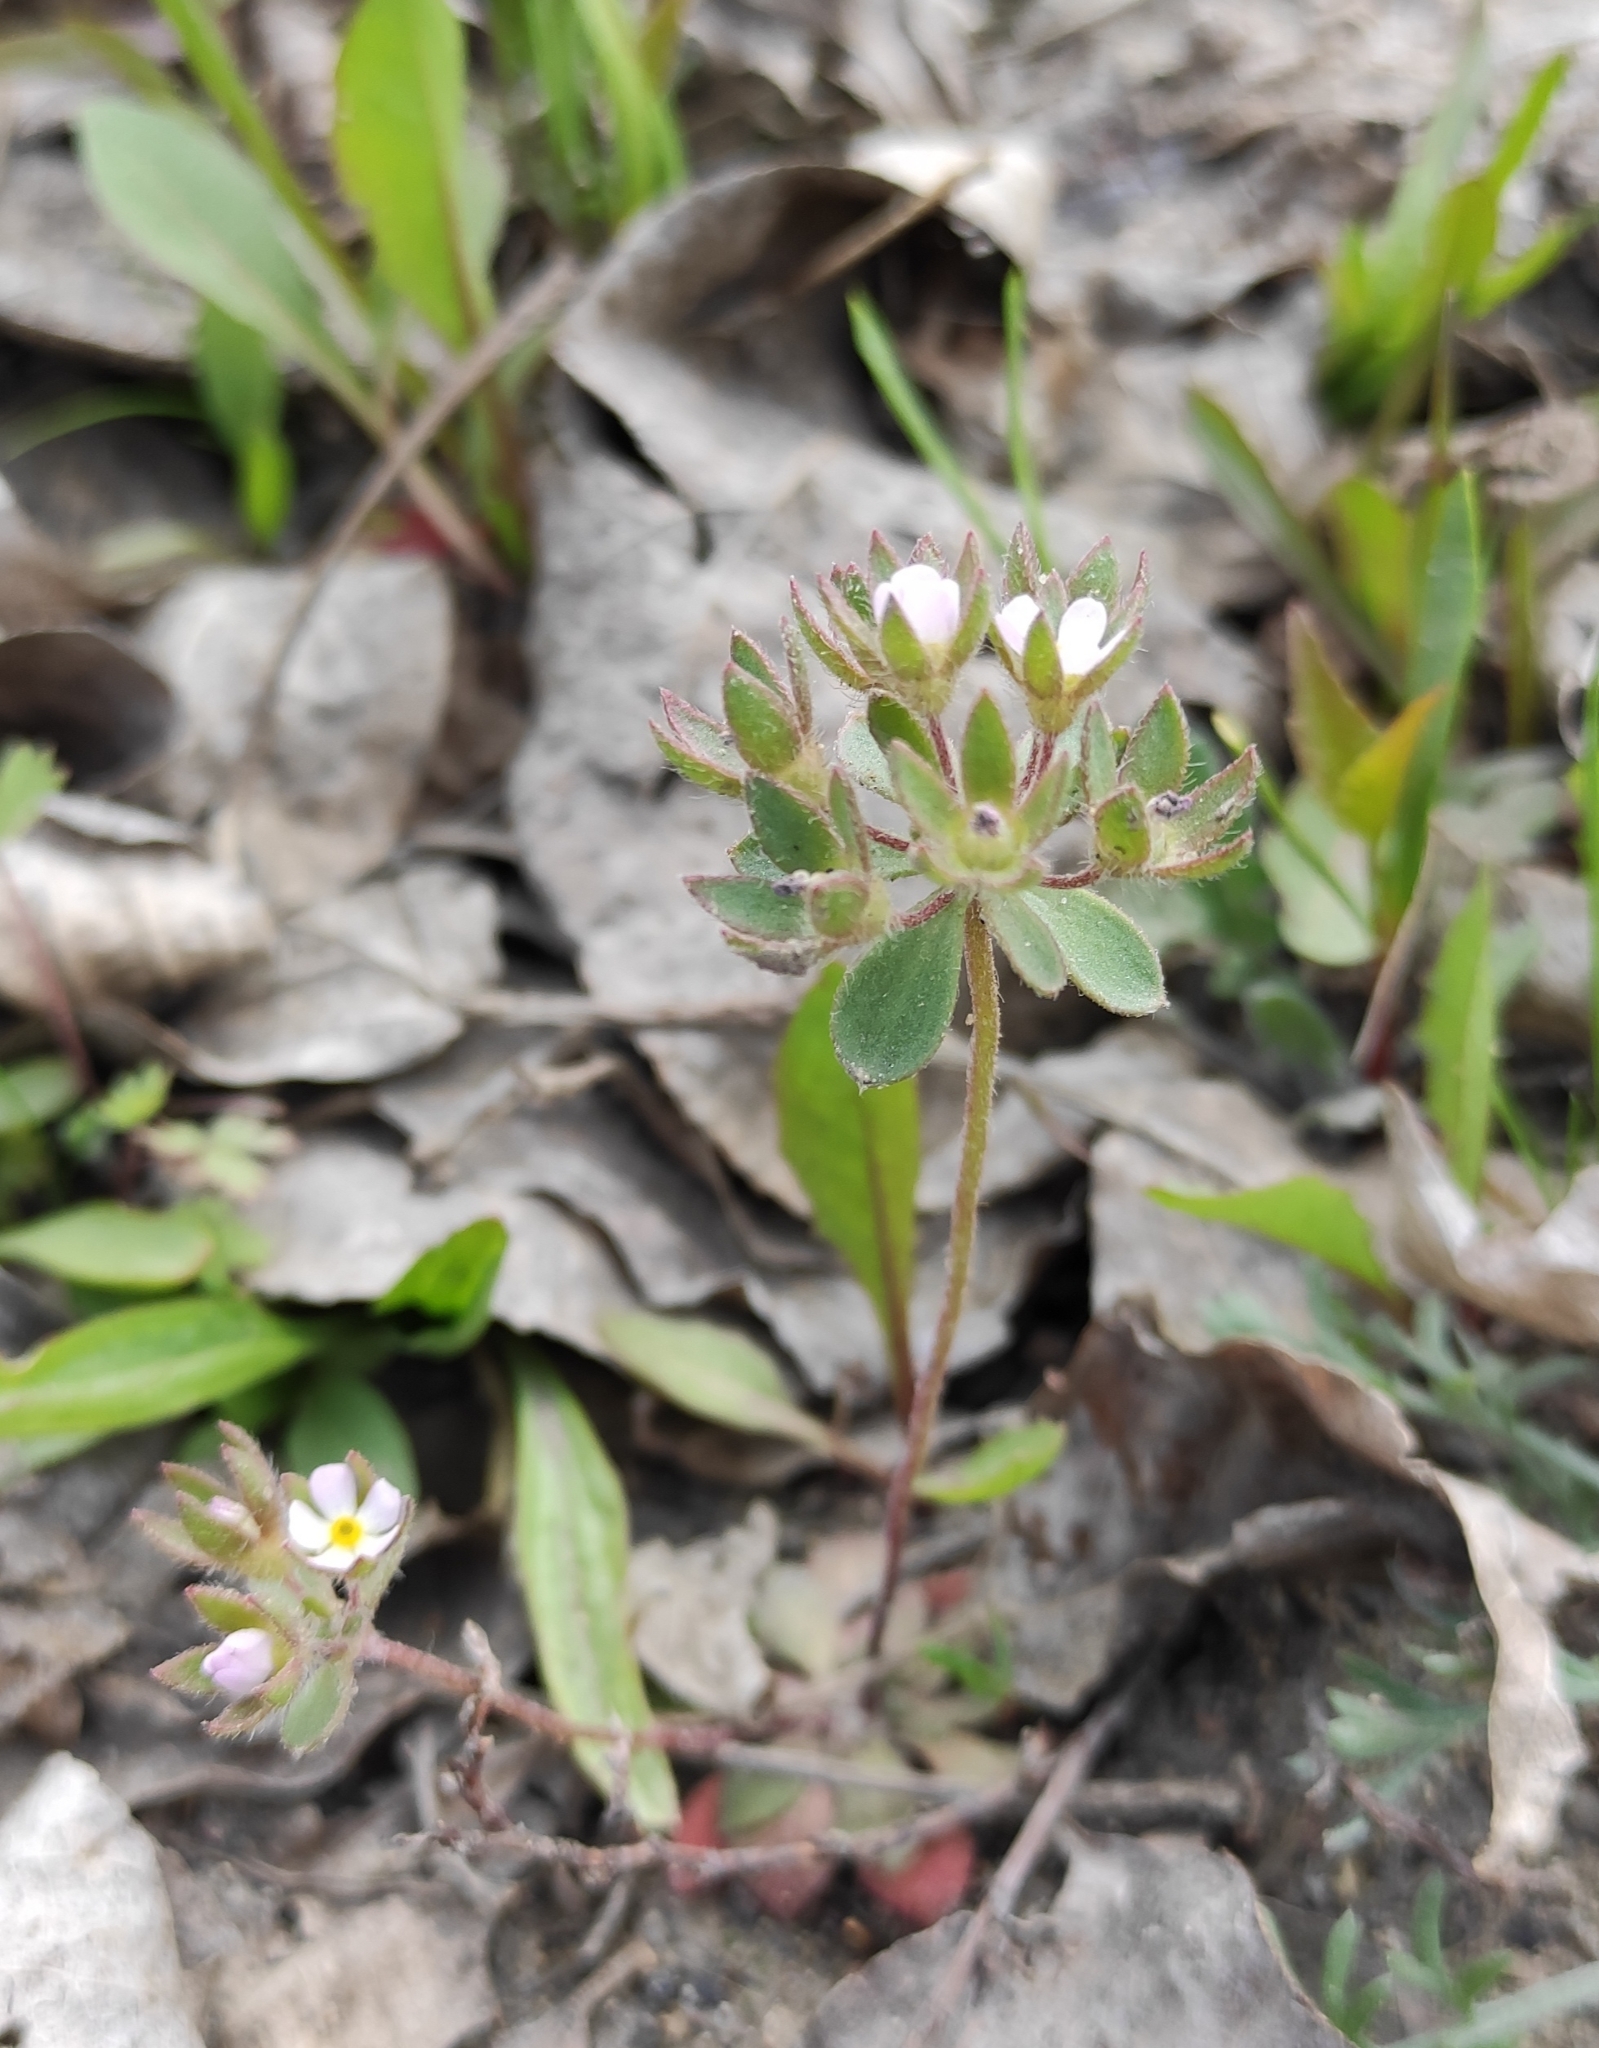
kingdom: Plantae
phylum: Tracheophyta
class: Magnoliopsida
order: Ericales
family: Primulaceae
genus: Androsace
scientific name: Androsace maxima
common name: Annual androsace
